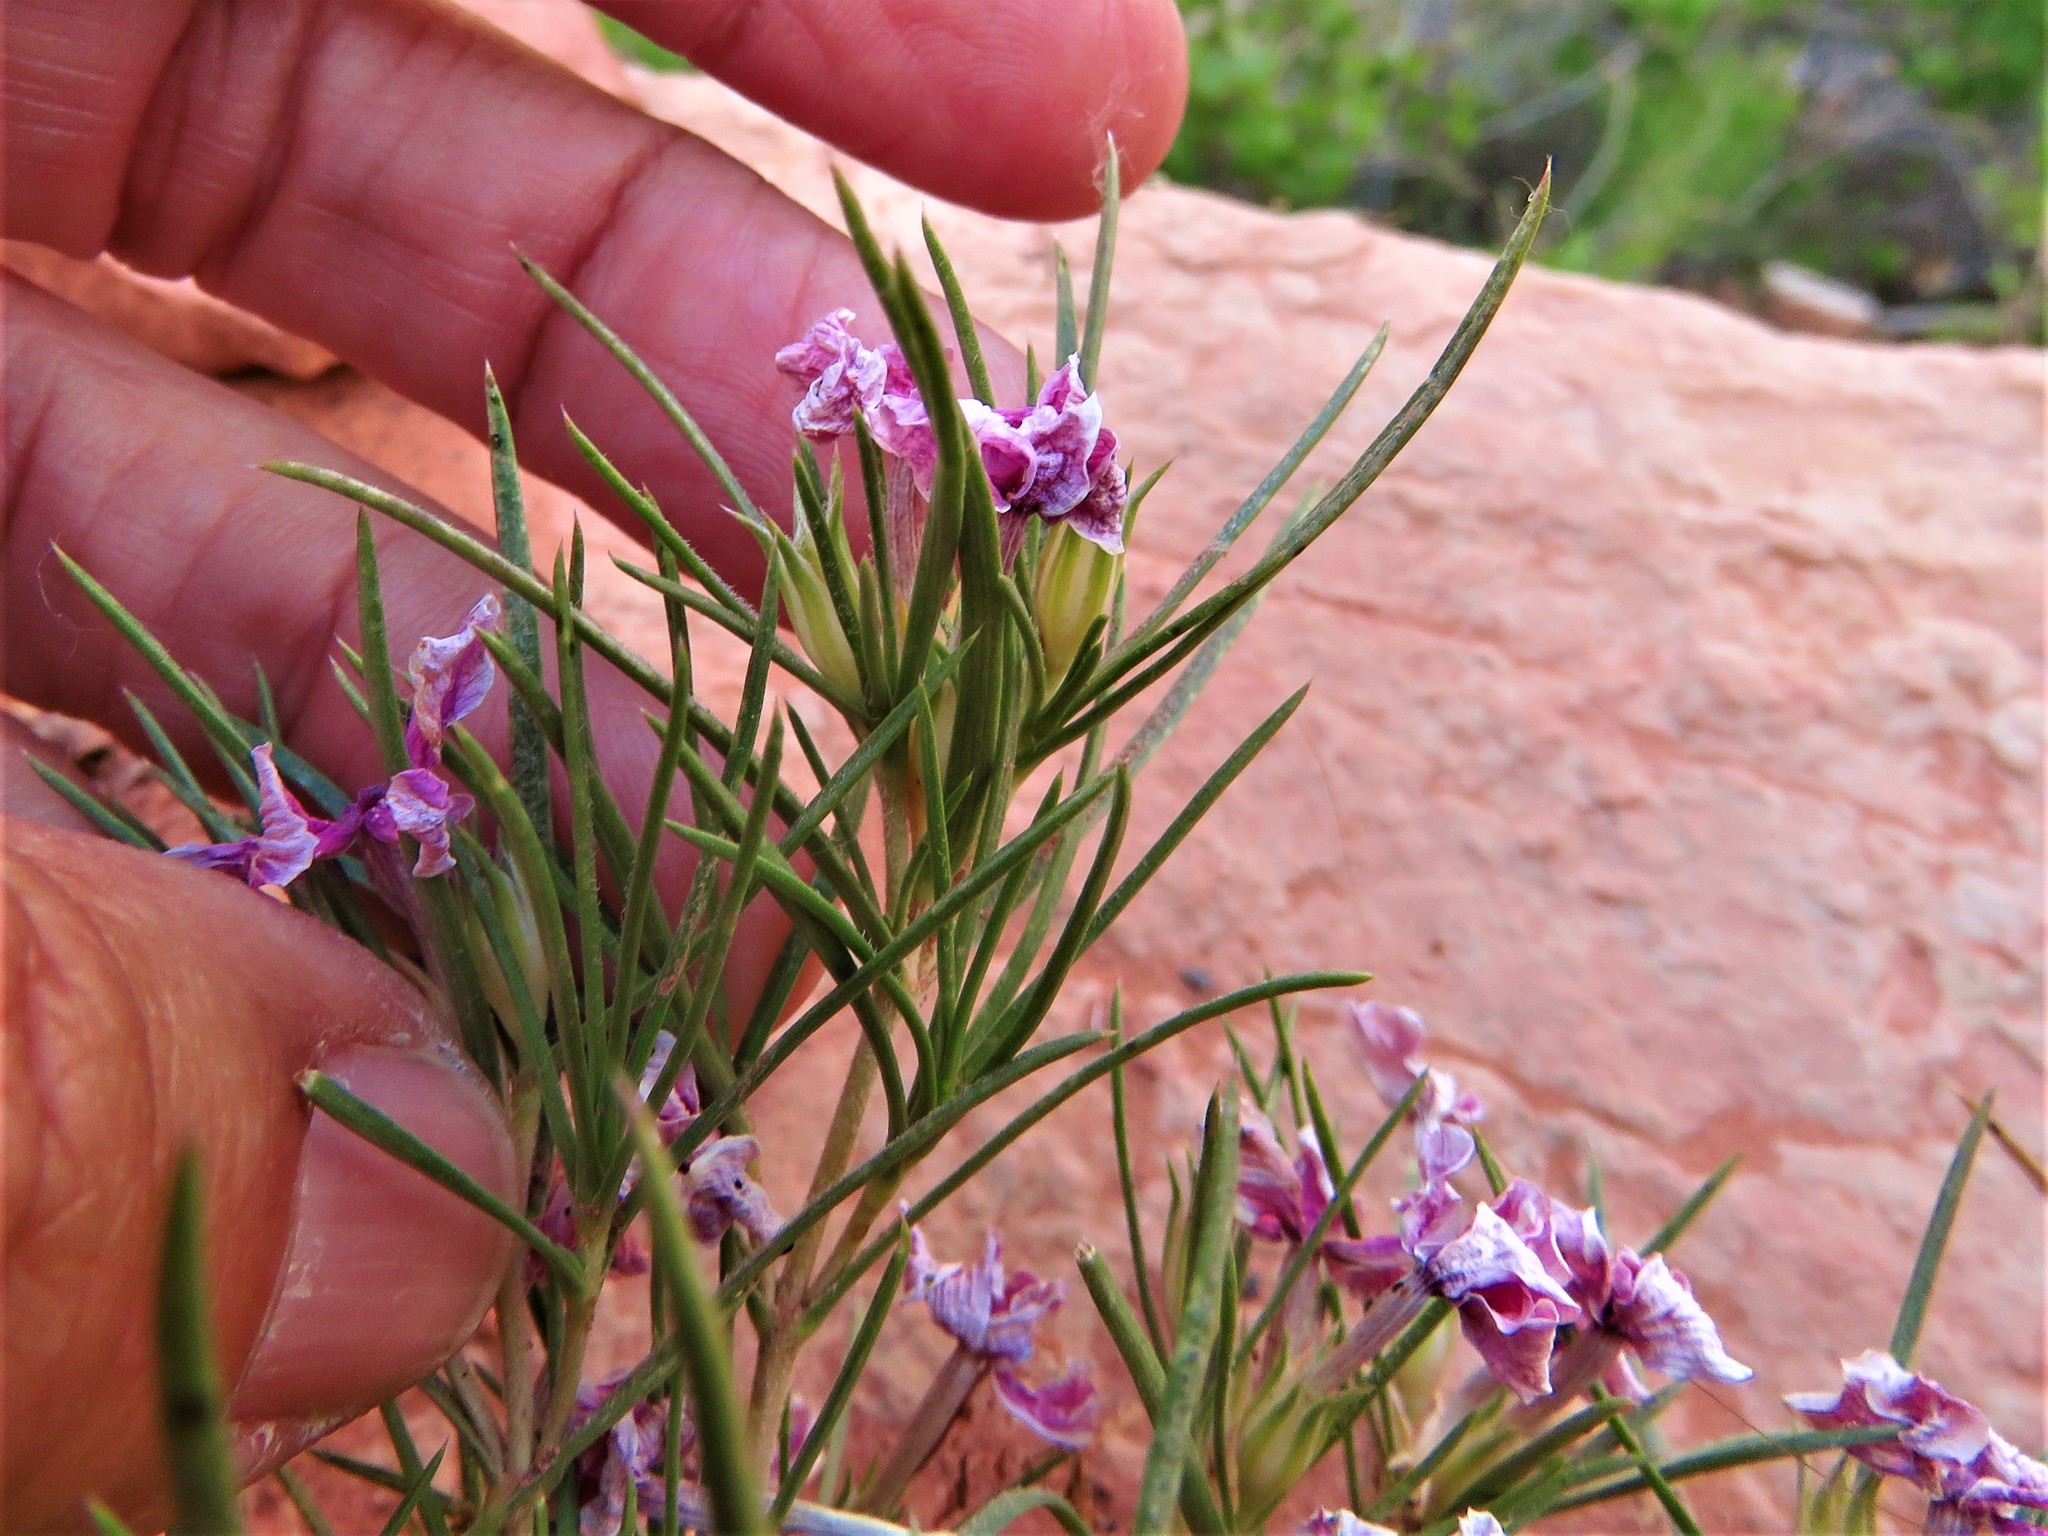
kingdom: Plantae
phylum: Tracheophyta
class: Magnoliopsida
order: Ericales
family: Polemoniaceae
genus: Phlox
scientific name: Phlox austromontana
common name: Desert phlox
